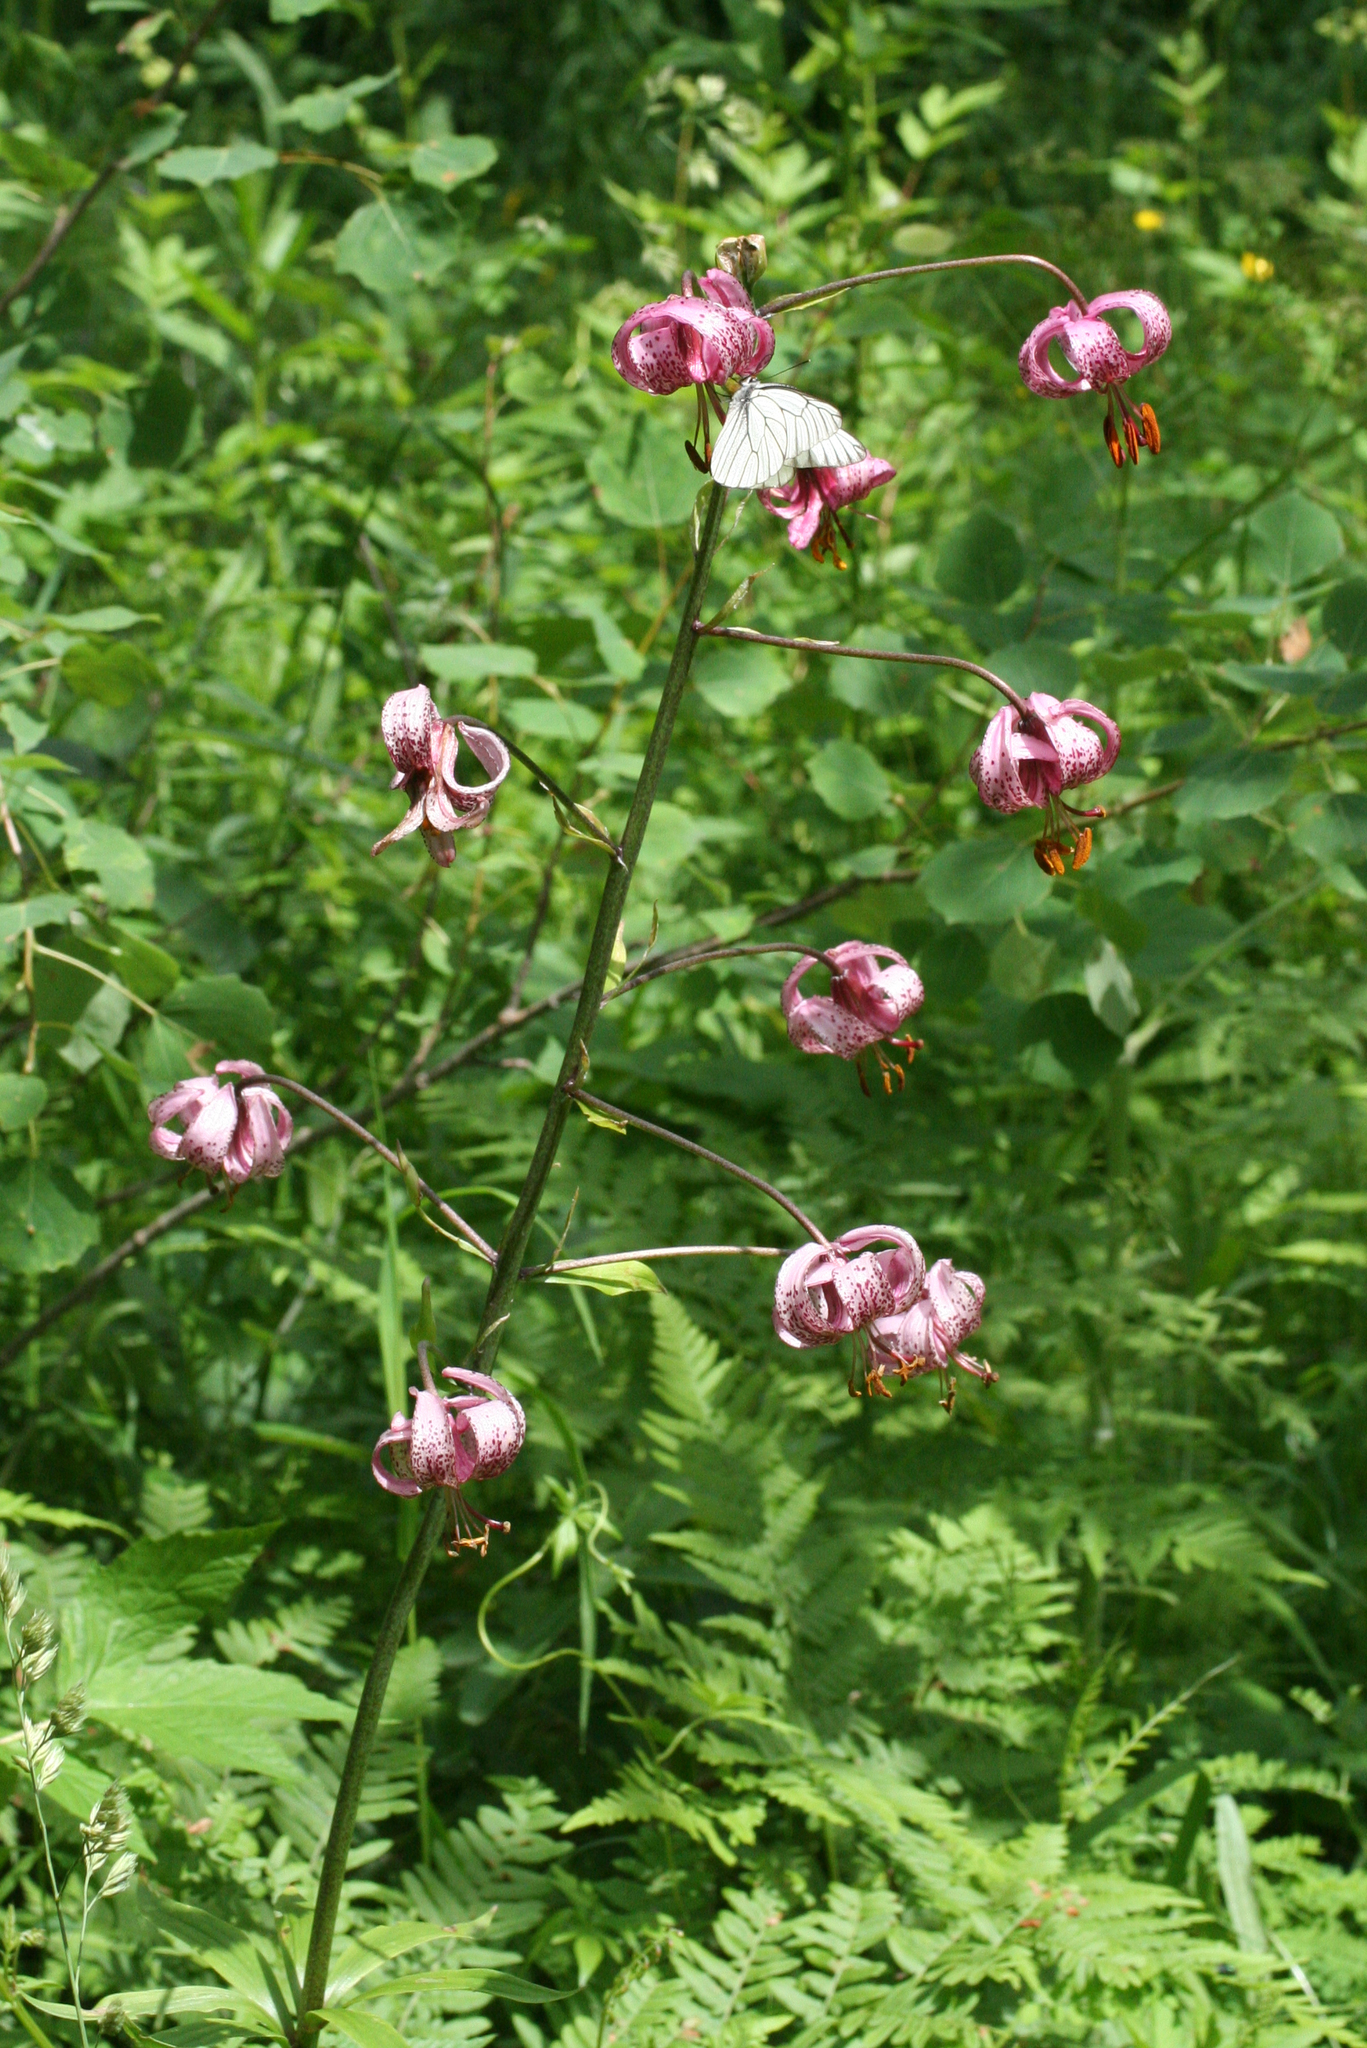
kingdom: Plantae
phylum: Tracheophyta
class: Liliopsida
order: Liliales
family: Liliaceae
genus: Lilium
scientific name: Lilium martagon
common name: Martagon lily
